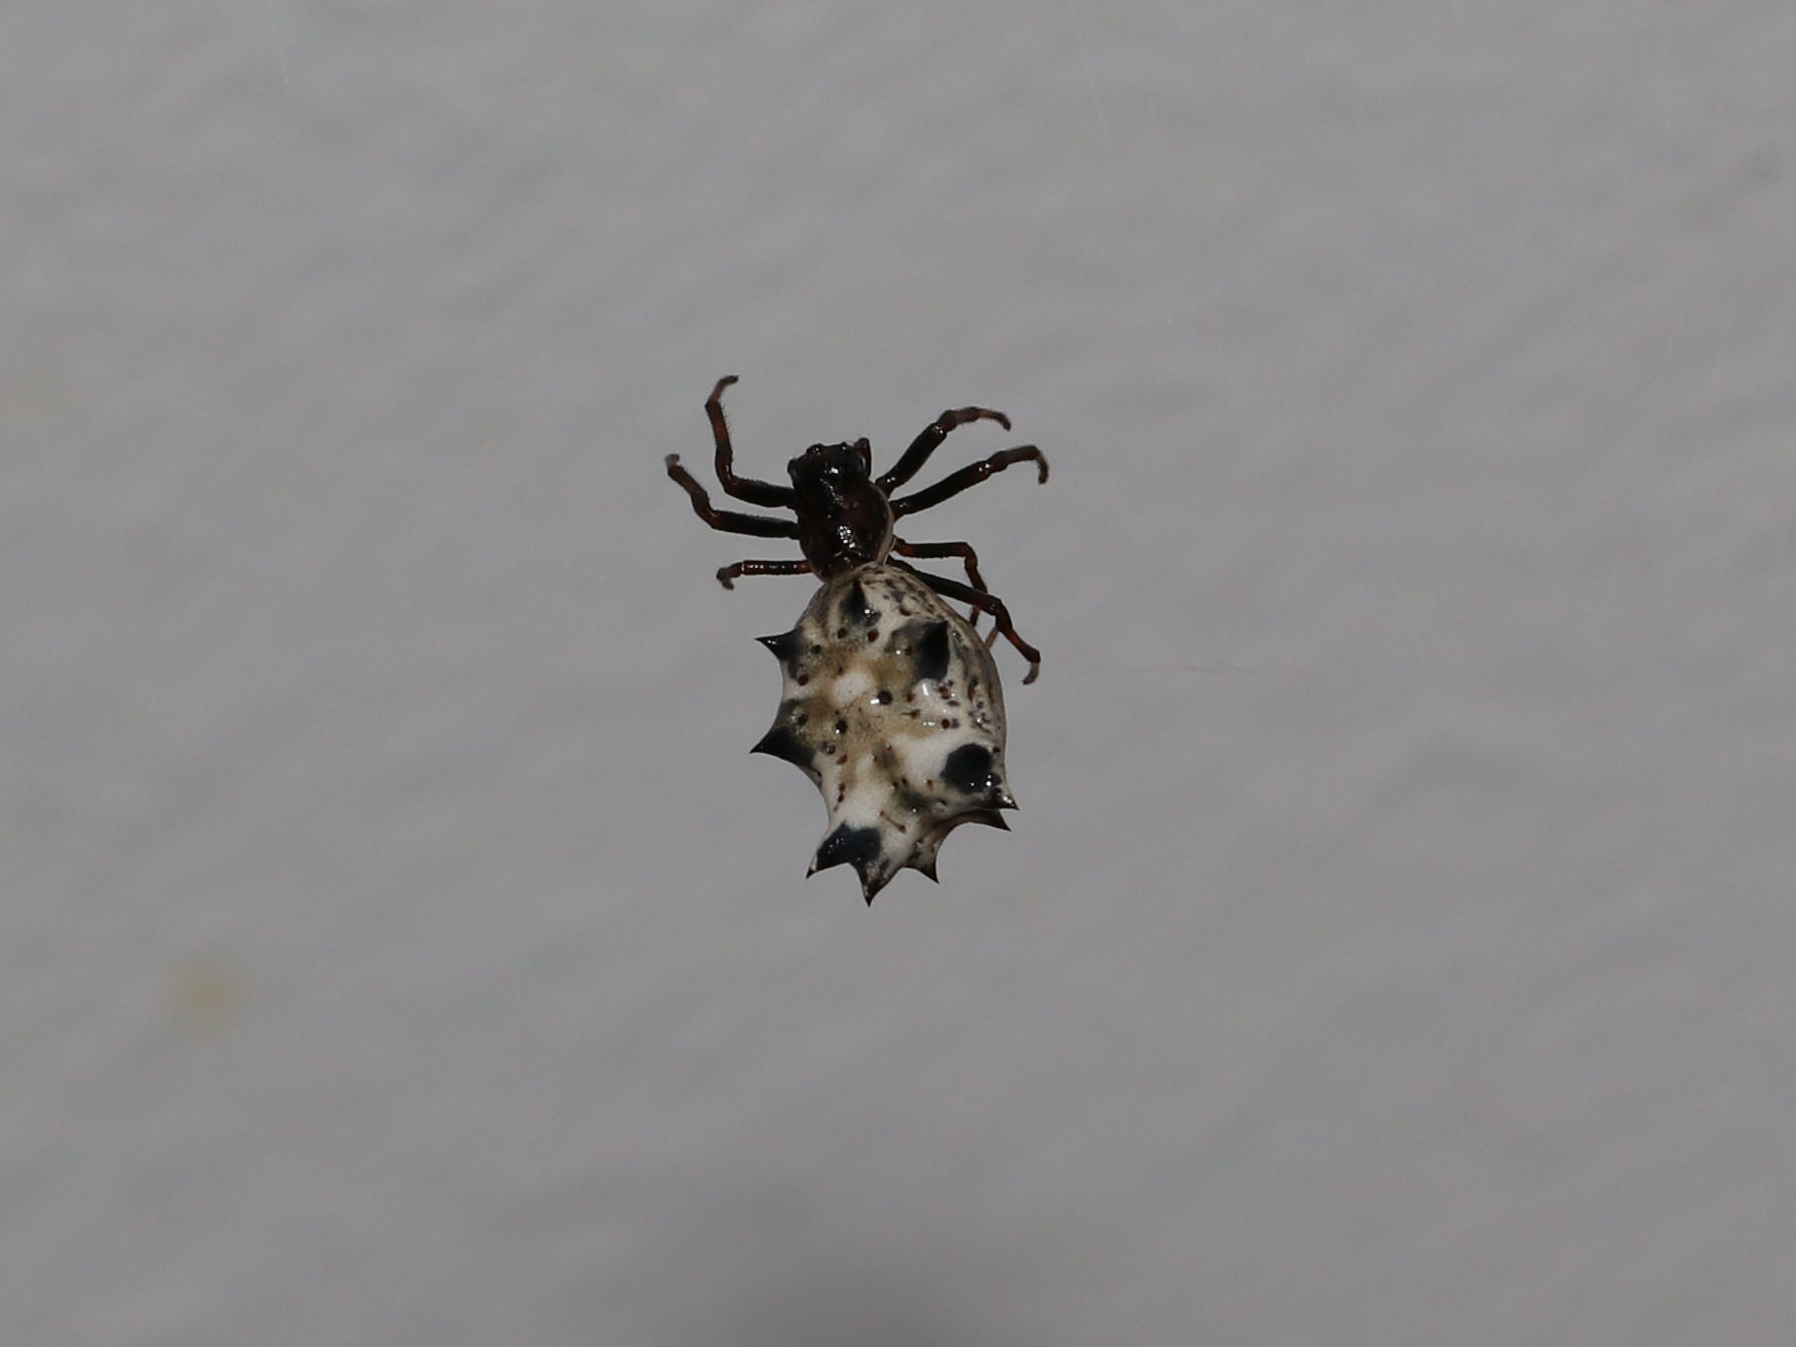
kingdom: Animalia
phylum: Arthropoda
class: Arachnida
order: Araneae
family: Araneidae
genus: Micrathena
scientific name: Micrathena gracilis
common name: Orb weavers
